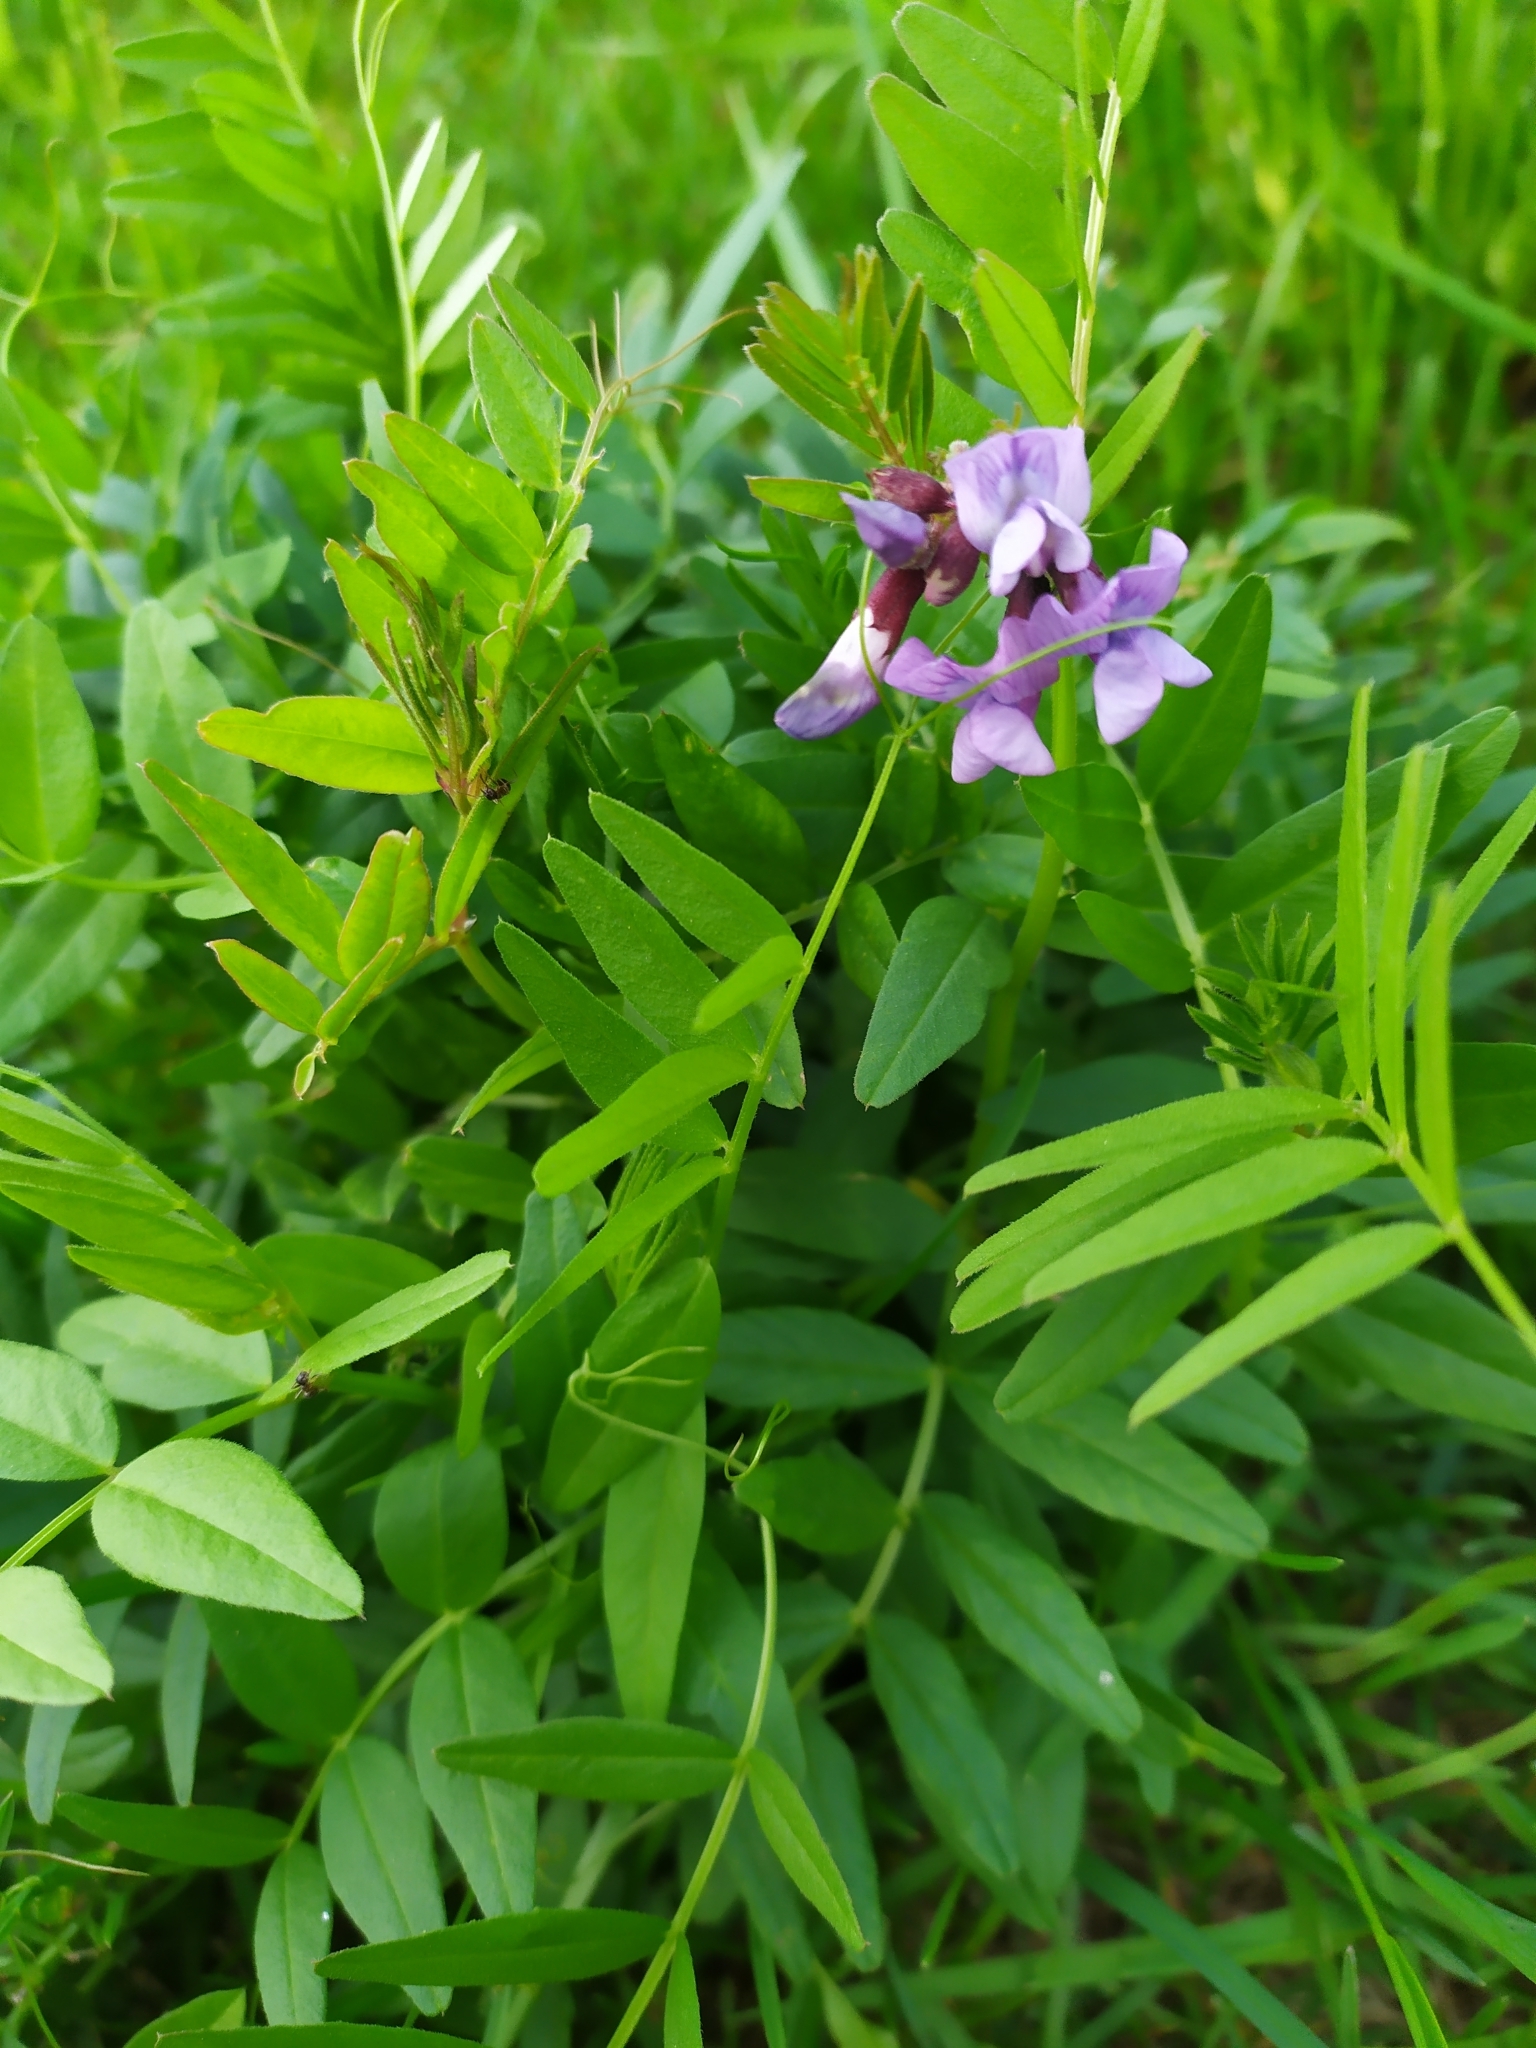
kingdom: Plantae
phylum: Tracheophyta
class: Magnoliopsida
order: Fabales
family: Fabaceae
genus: Vicia
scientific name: Vicia sepium
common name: Bush vetch
